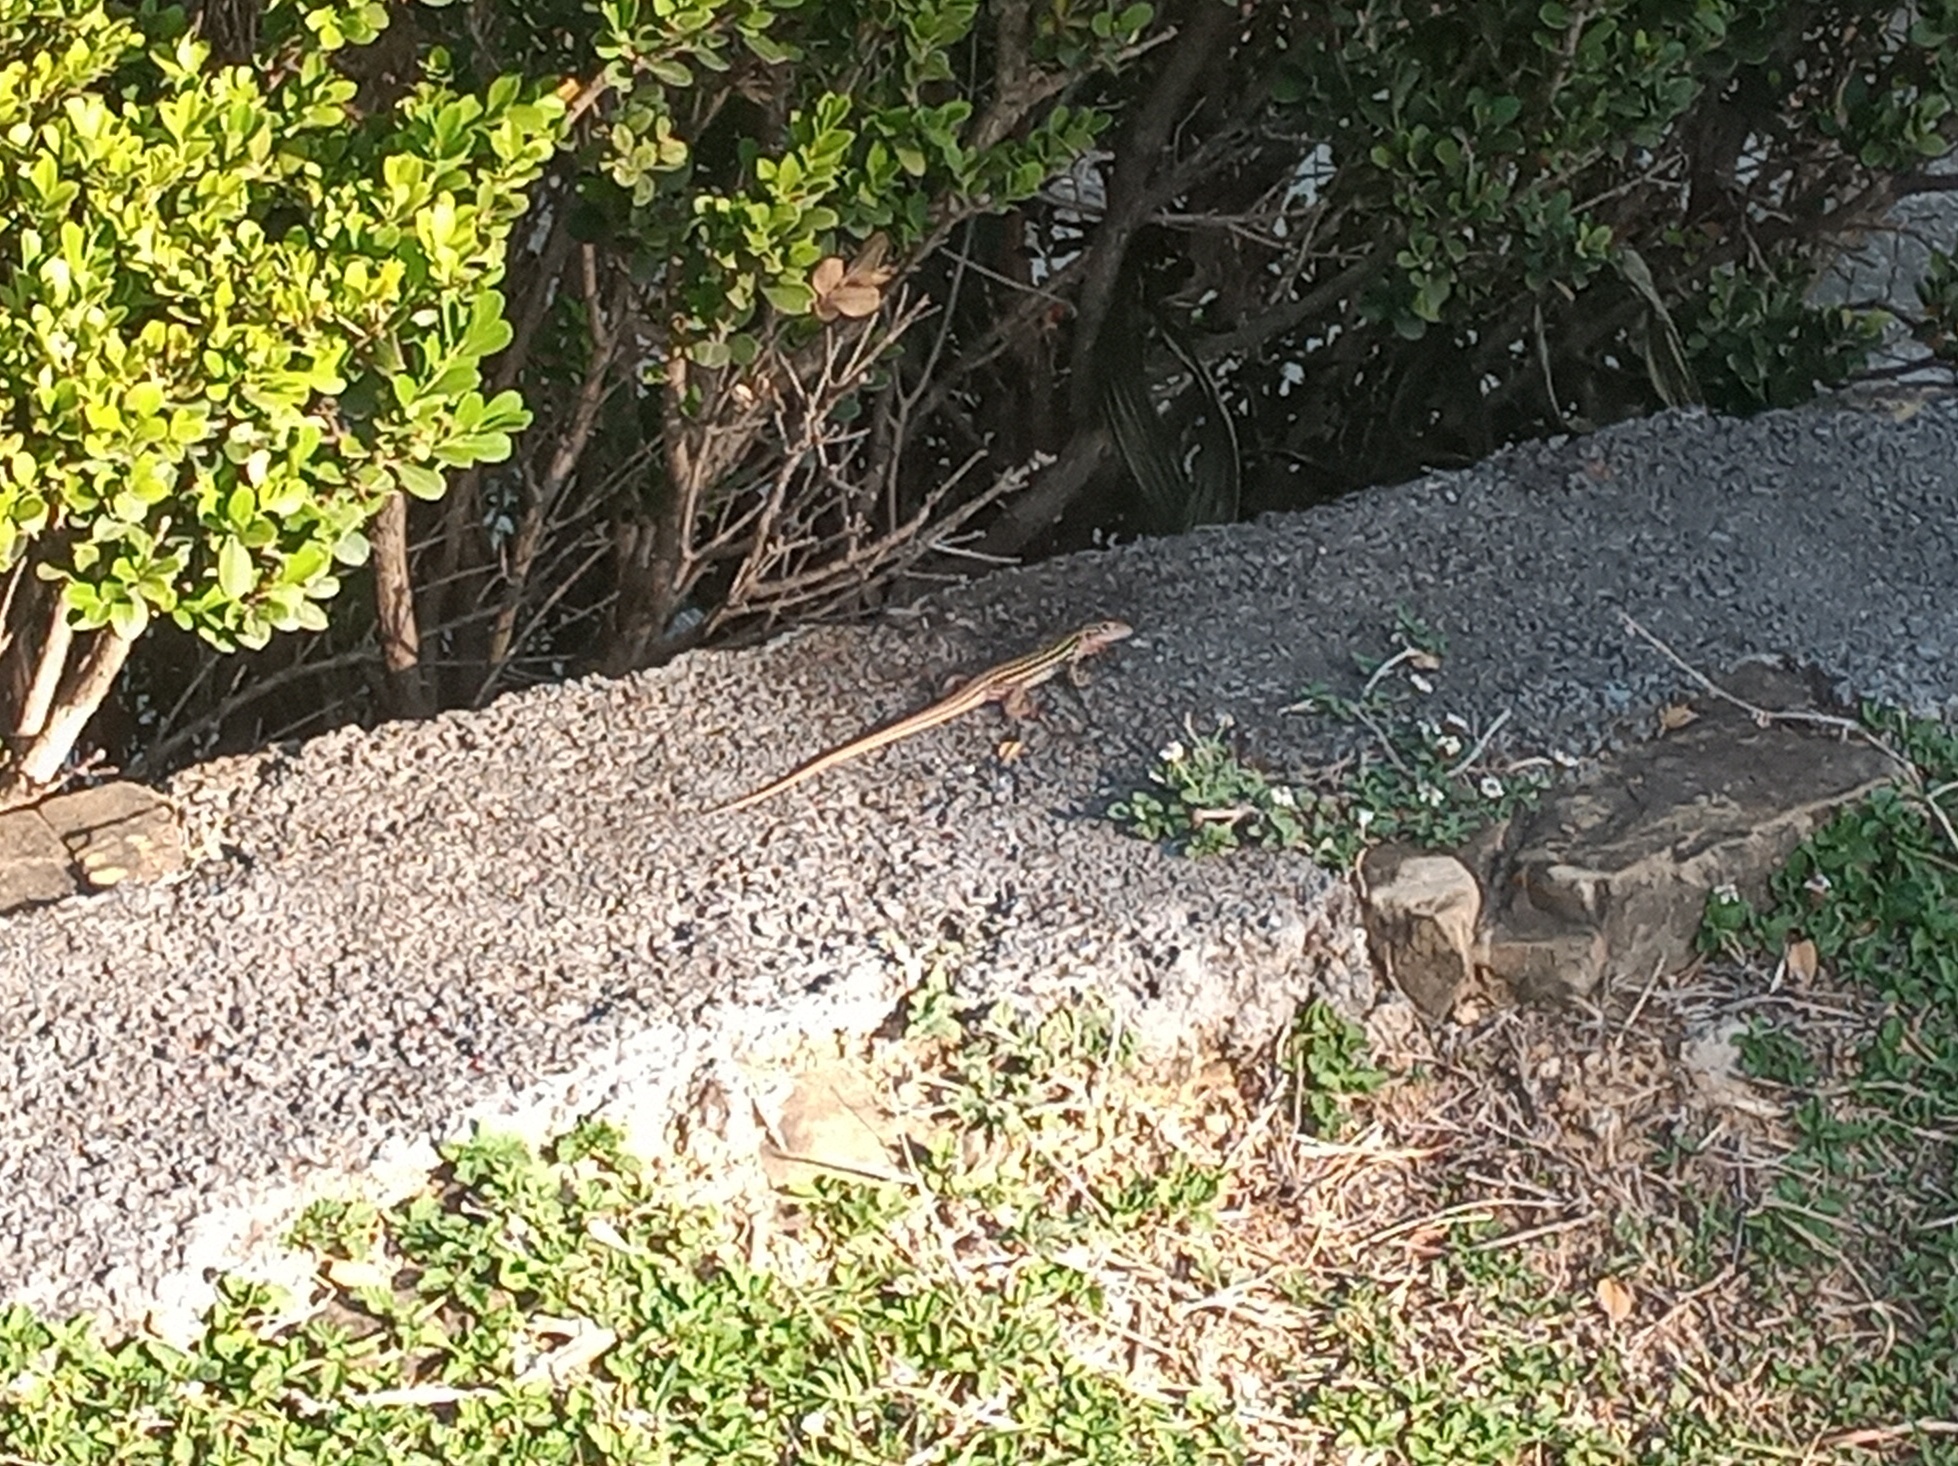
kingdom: Animalia
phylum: Chordata
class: Squamata
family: Teiidae
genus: Aspidoscelis
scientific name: Aspidoscelis gularis
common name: Eastern spotted whiptail
